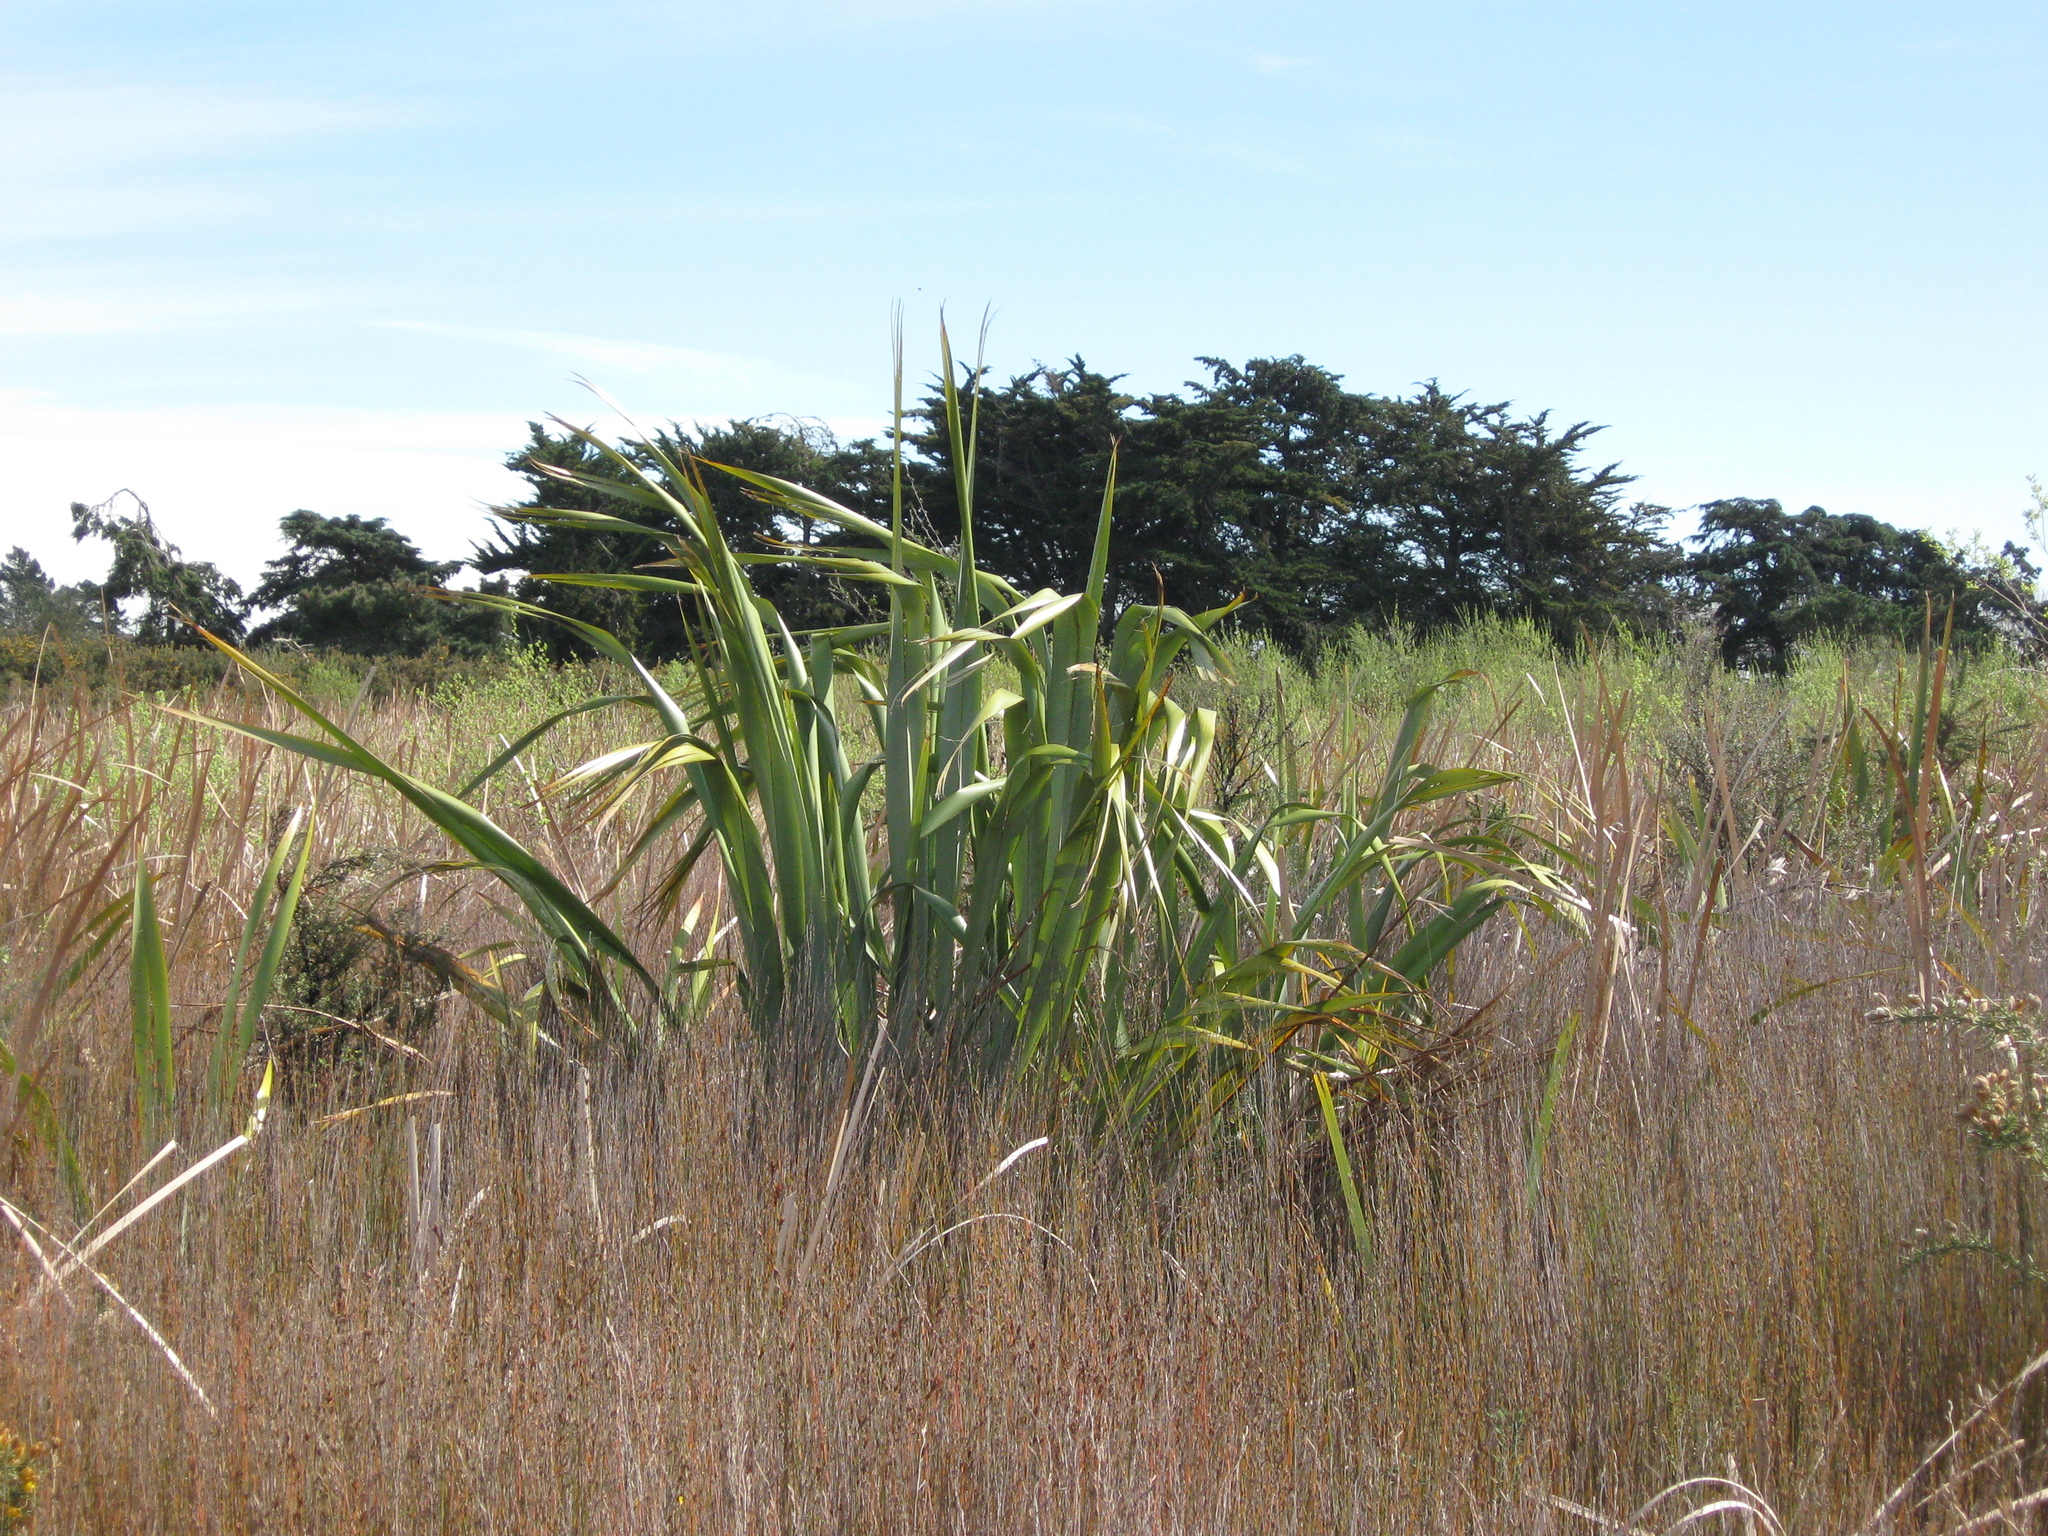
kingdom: Plantae
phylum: Tracheophyta
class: Liliopsida
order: Asparagales
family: Asphodelaceae
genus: Phormium
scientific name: Phormium tenax
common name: New zealand flax
